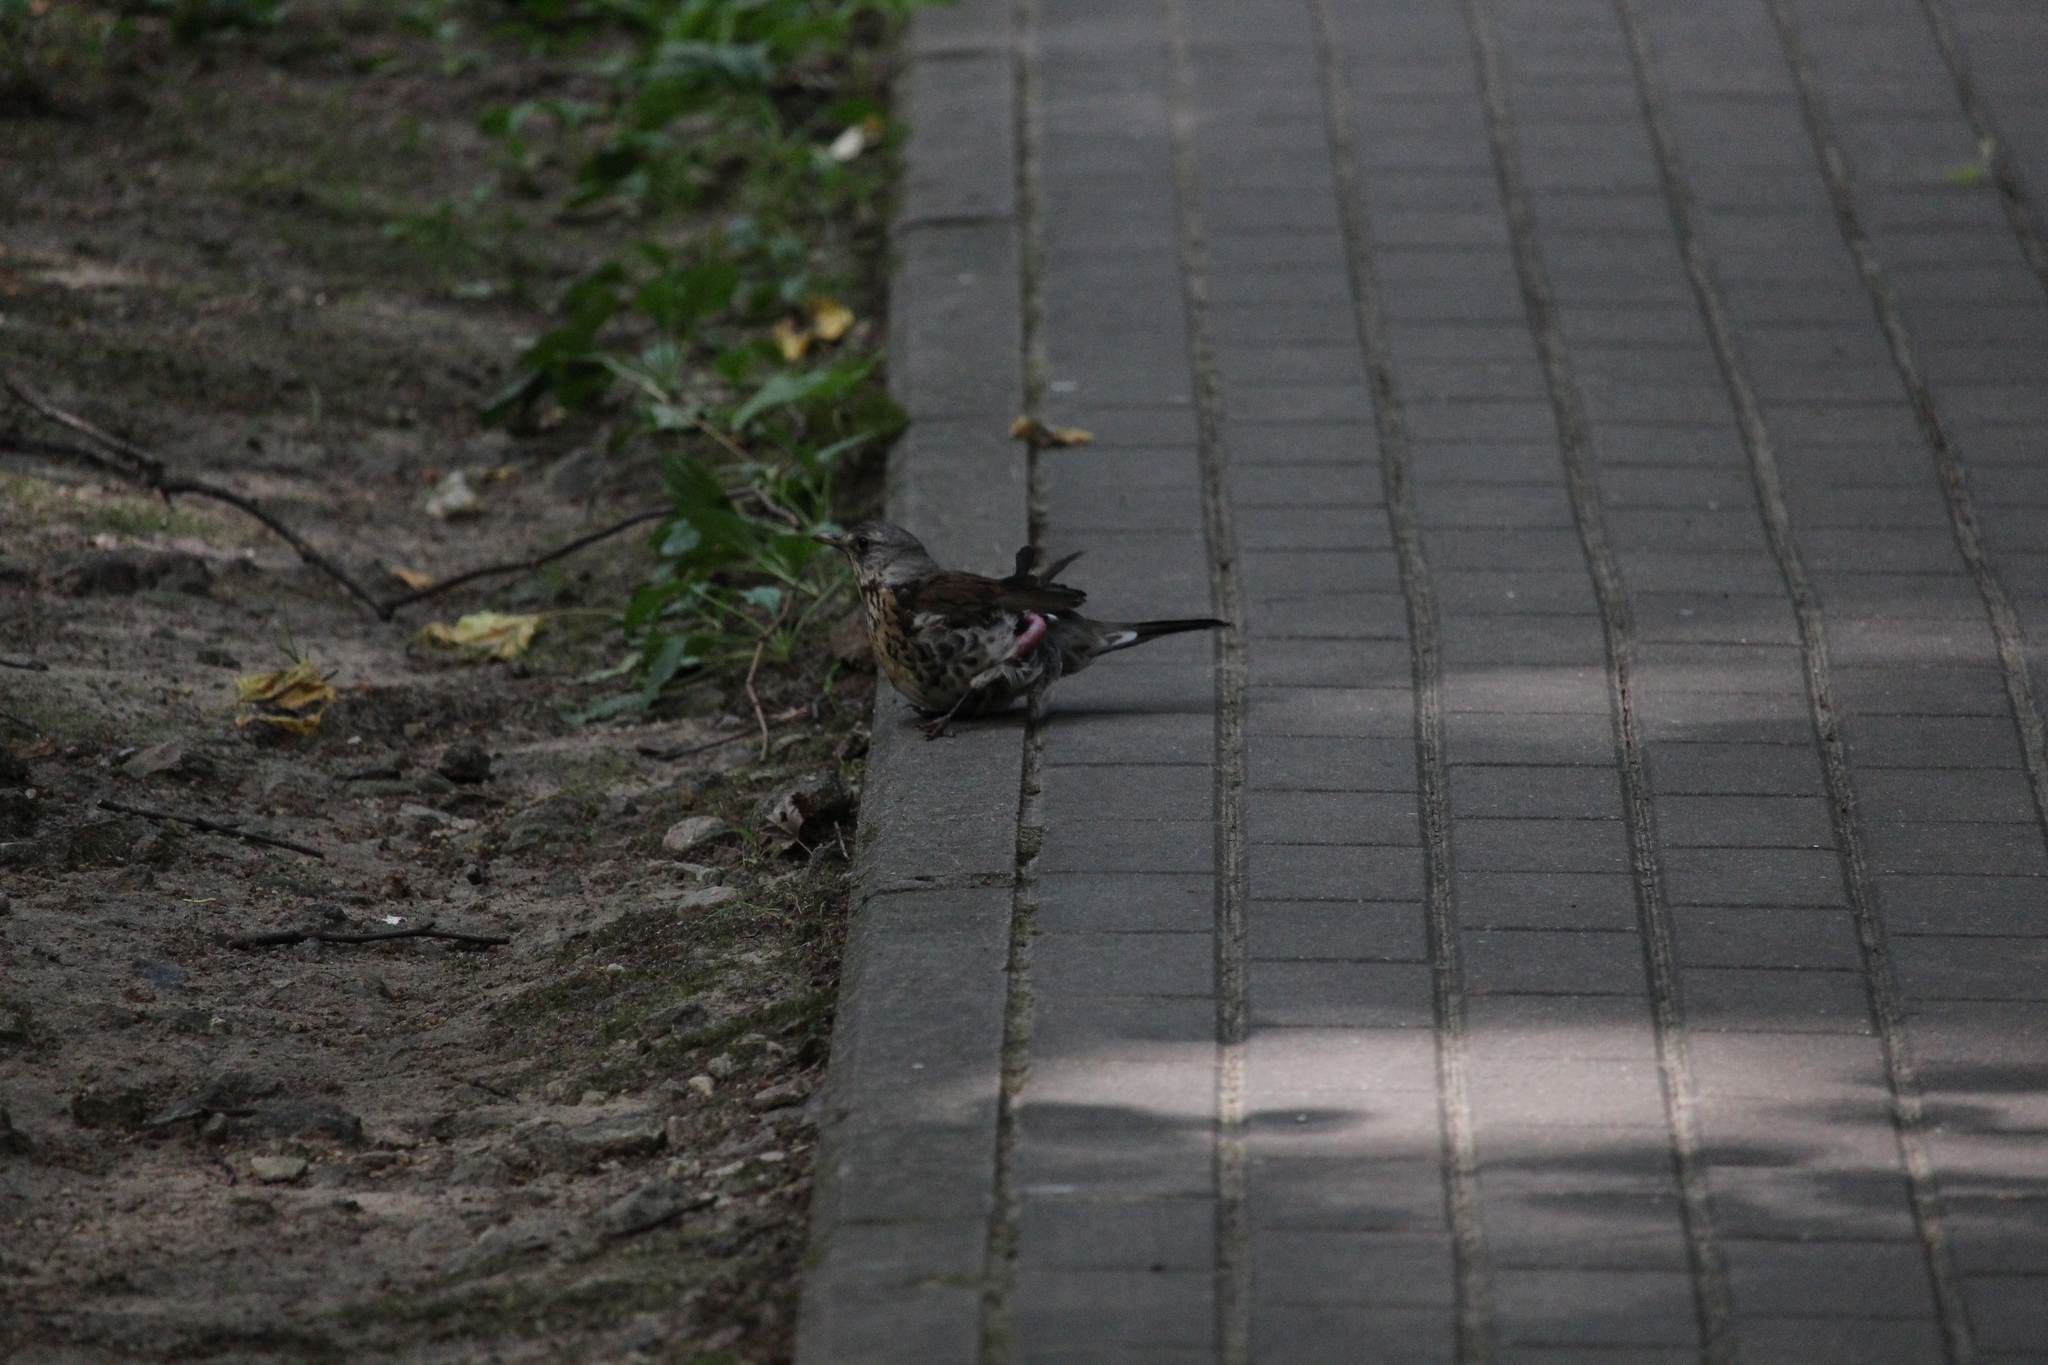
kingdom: Animalia
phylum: Chordata
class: Aves
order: Passeriformes
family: Turdidae
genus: Turdus
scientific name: Turdus pilaris
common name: Fieldfare
